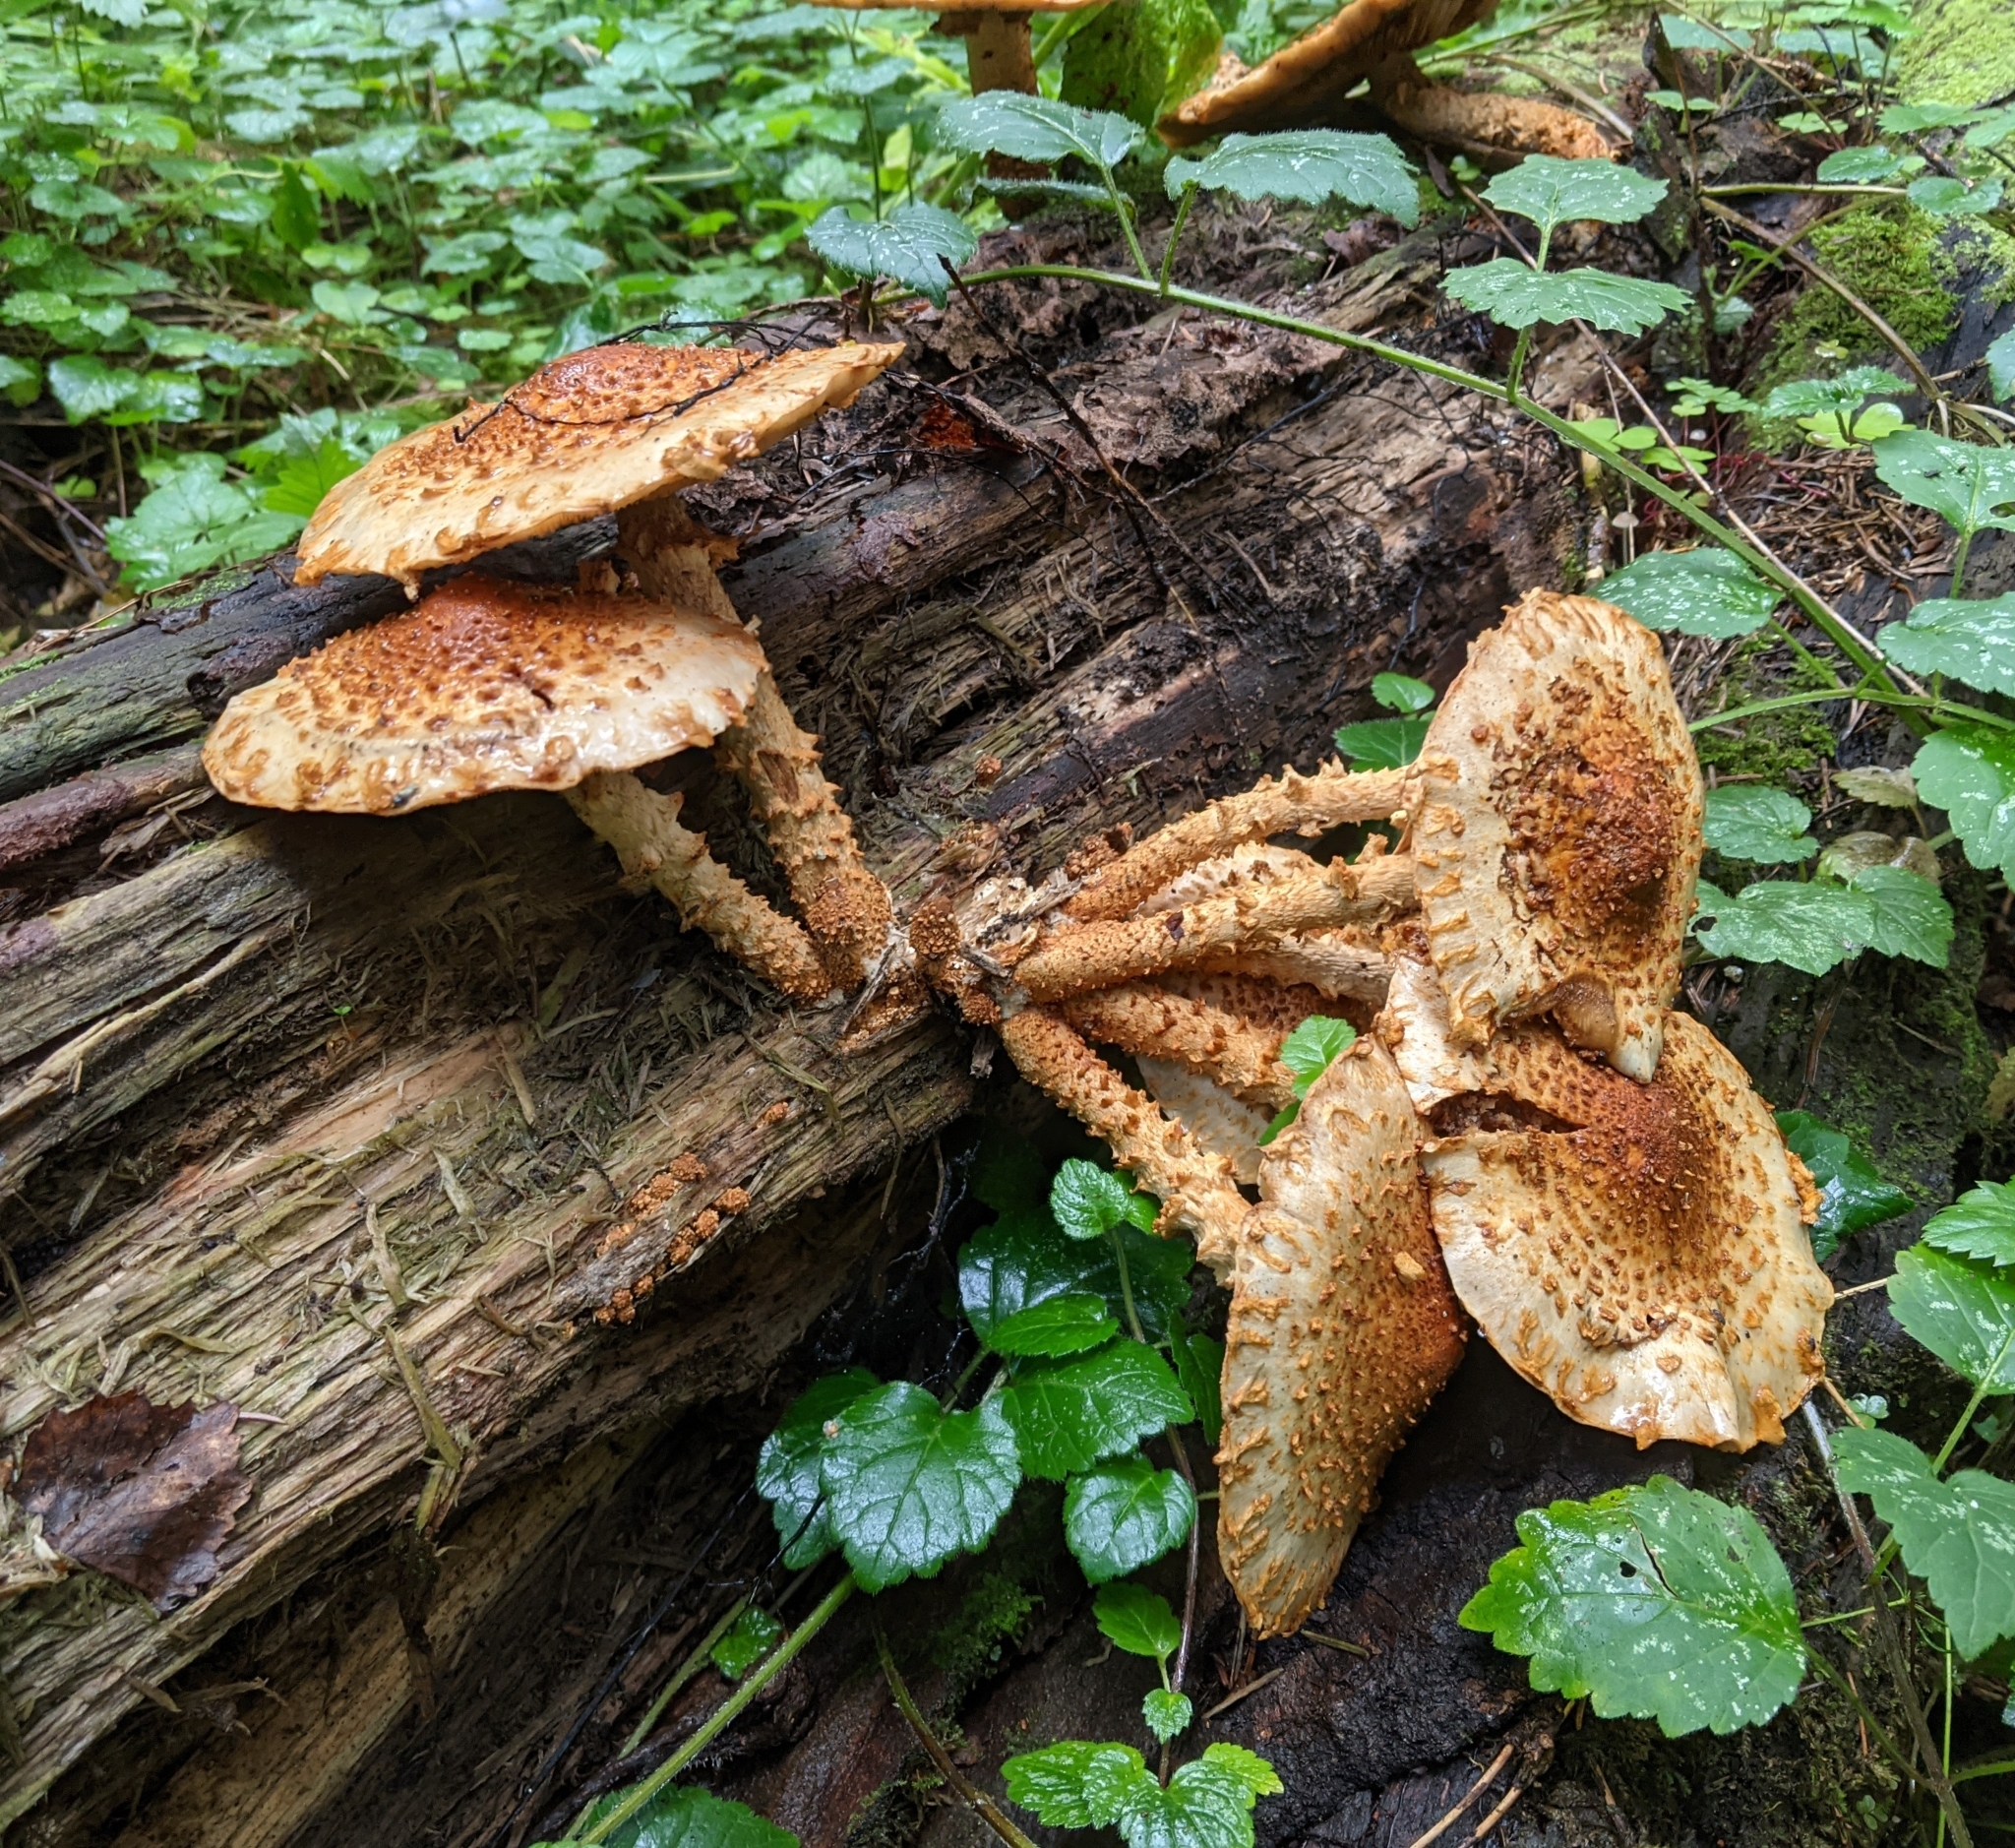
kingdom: Fungi
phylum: Basidiomycota
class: Agaricomycetes
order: Agaricales
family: Strophariaceae
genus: Pholiota
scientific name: Pholiota squarrosa
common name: Shaggy pholiota
